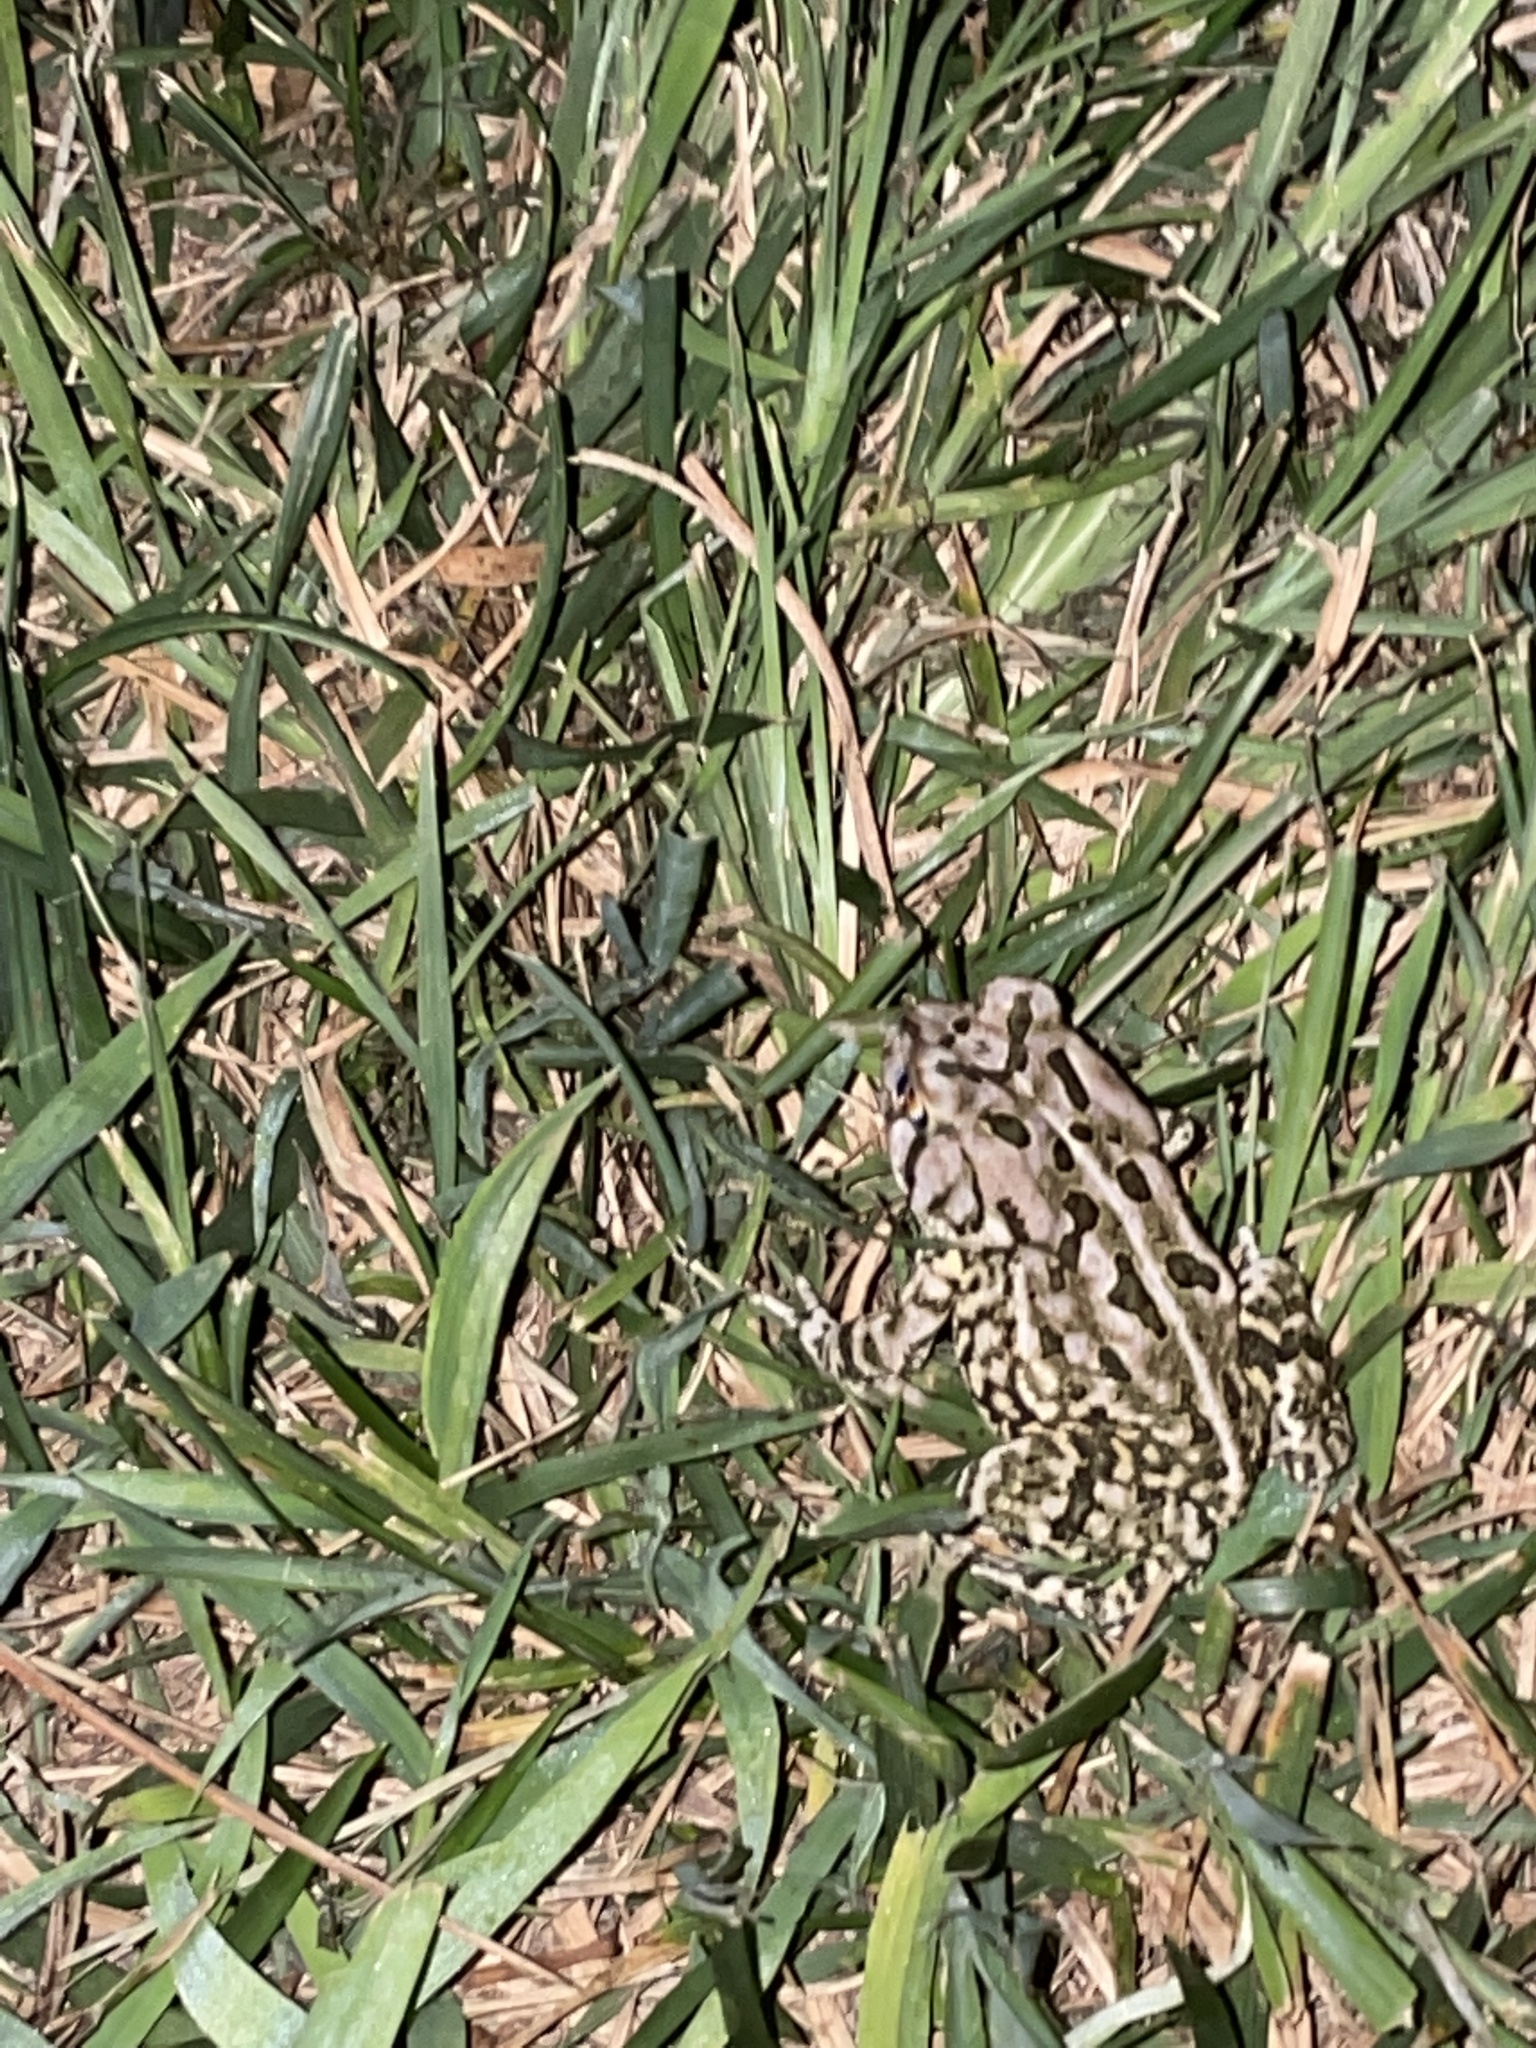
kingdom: Animalia
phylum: Chordata
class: Amphibia
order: Anura
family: Bufonidae
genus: Anaxyrus
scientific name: Anaxyrus fowleri
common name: Fowler's toad
